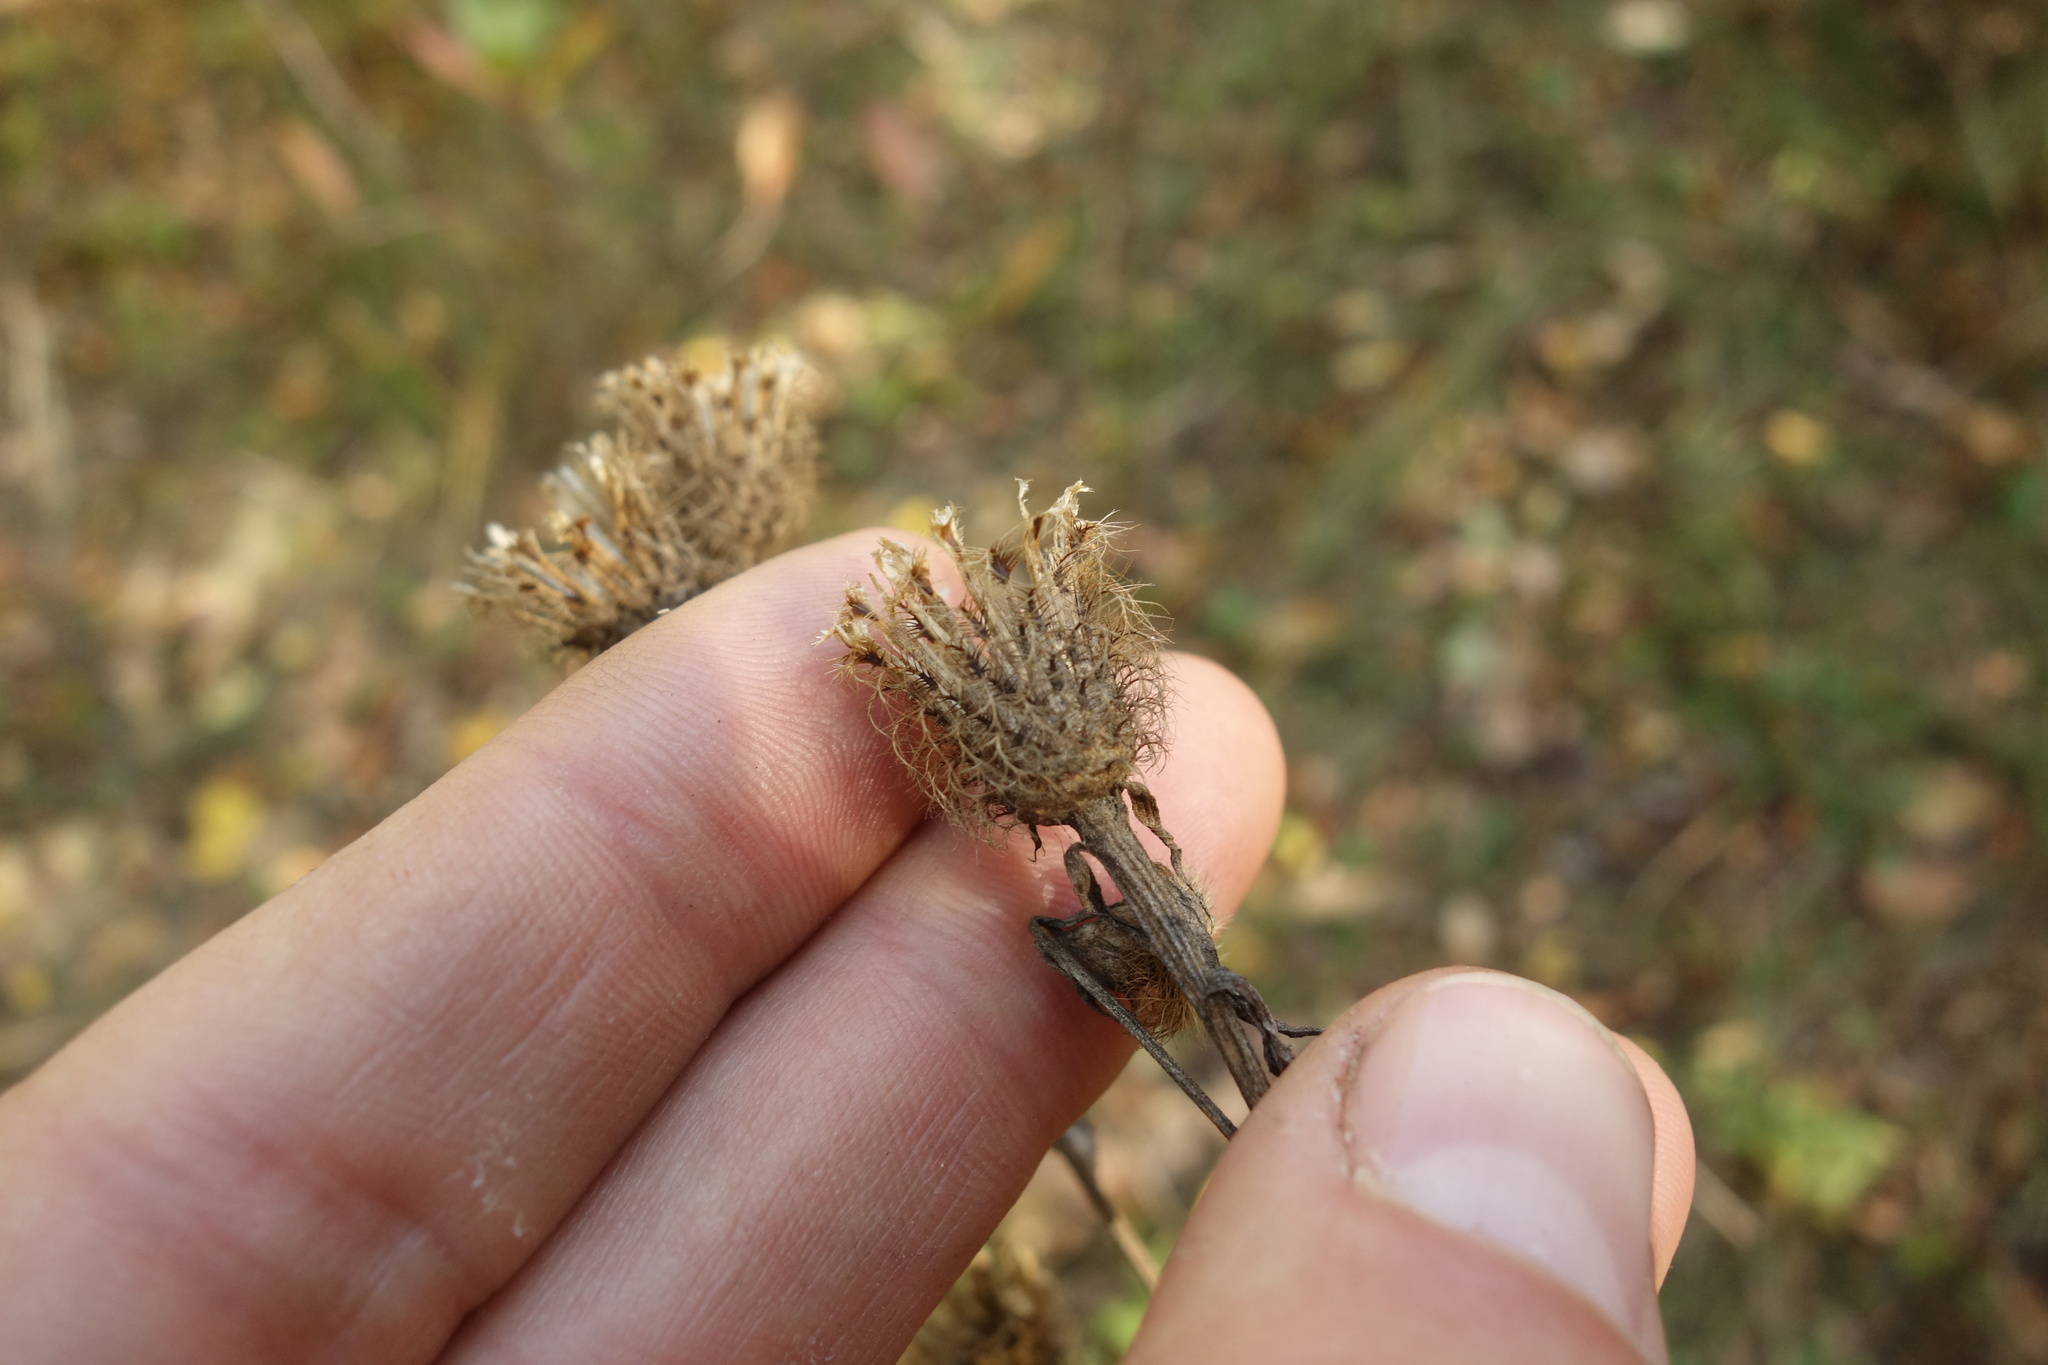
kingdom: Plantae
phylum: Tracheophyta
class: Magnoliopsida
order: Asterales
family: Asteraceae
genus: Centaurea
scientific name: Centaurea pseudophrygia
